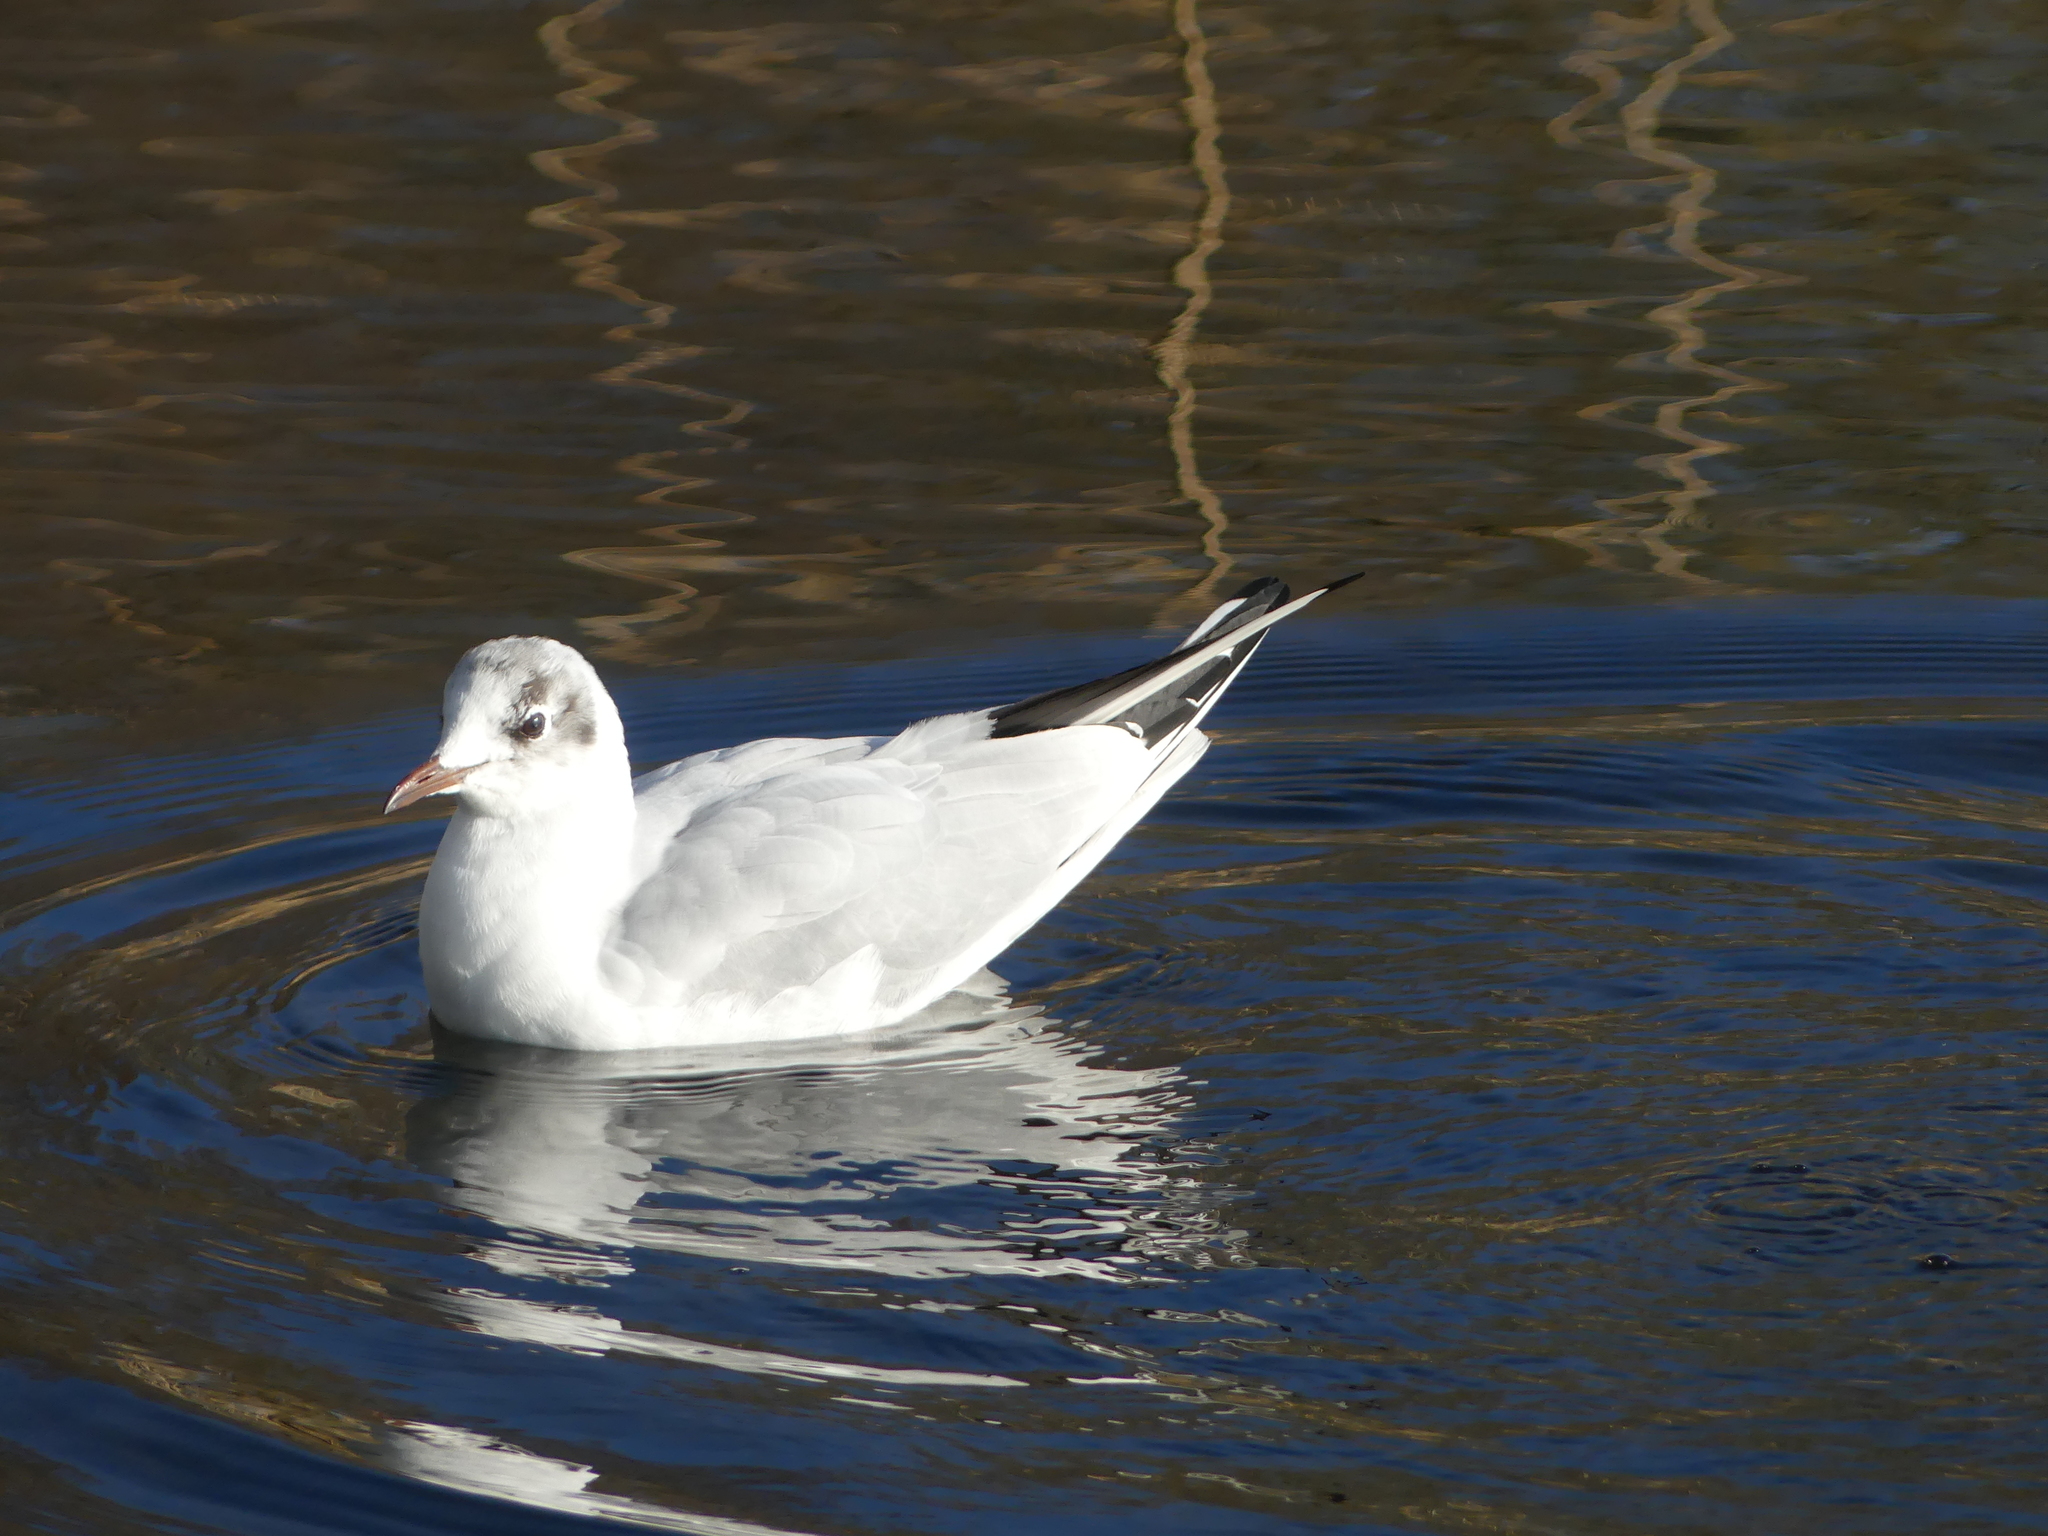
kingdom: Animalia
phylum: Chordata
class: Aves
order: Charadriiformes
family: Laridae
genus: Chroicocephalus
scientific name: Chroicocephalus ridibundus
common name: Black-headed gull
